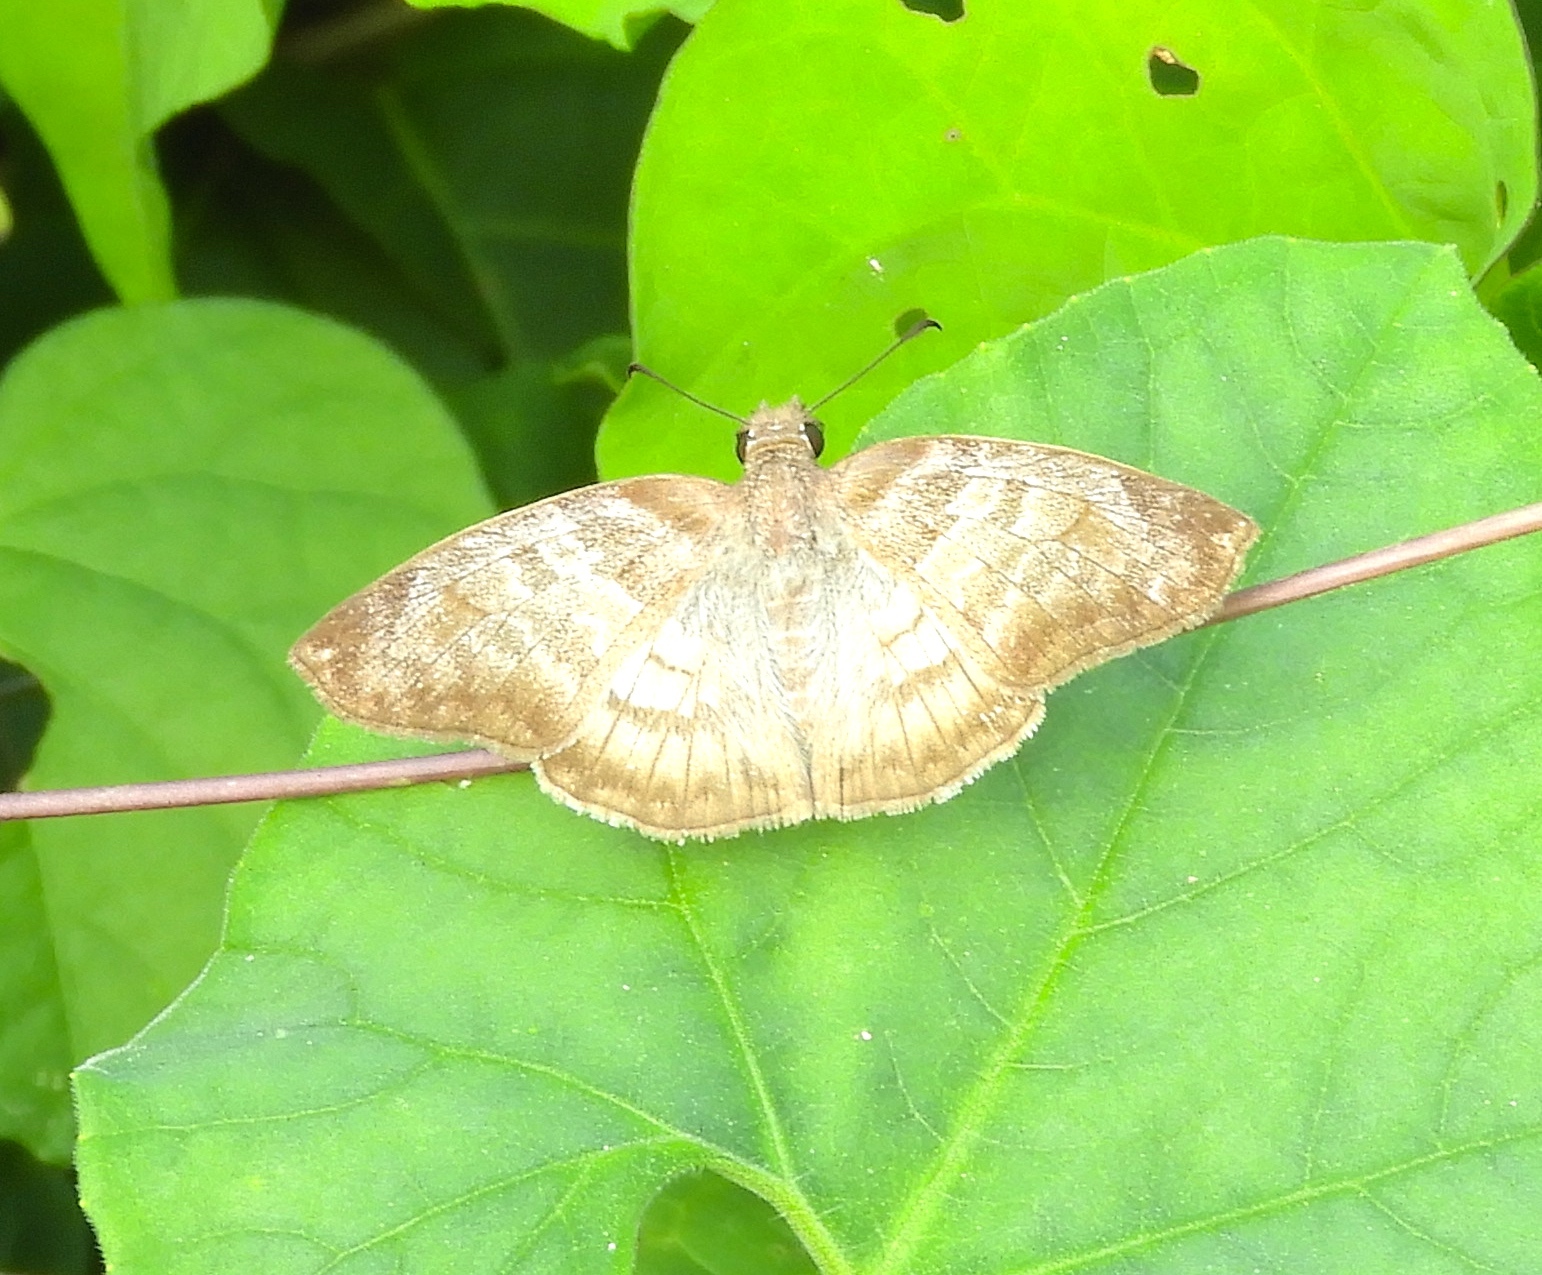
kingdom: Animalia
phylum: Arthropoda
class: Insecta
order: Lepidoptera
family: Hesperiidae
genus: Mylon
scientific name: Mylon pelopidas
